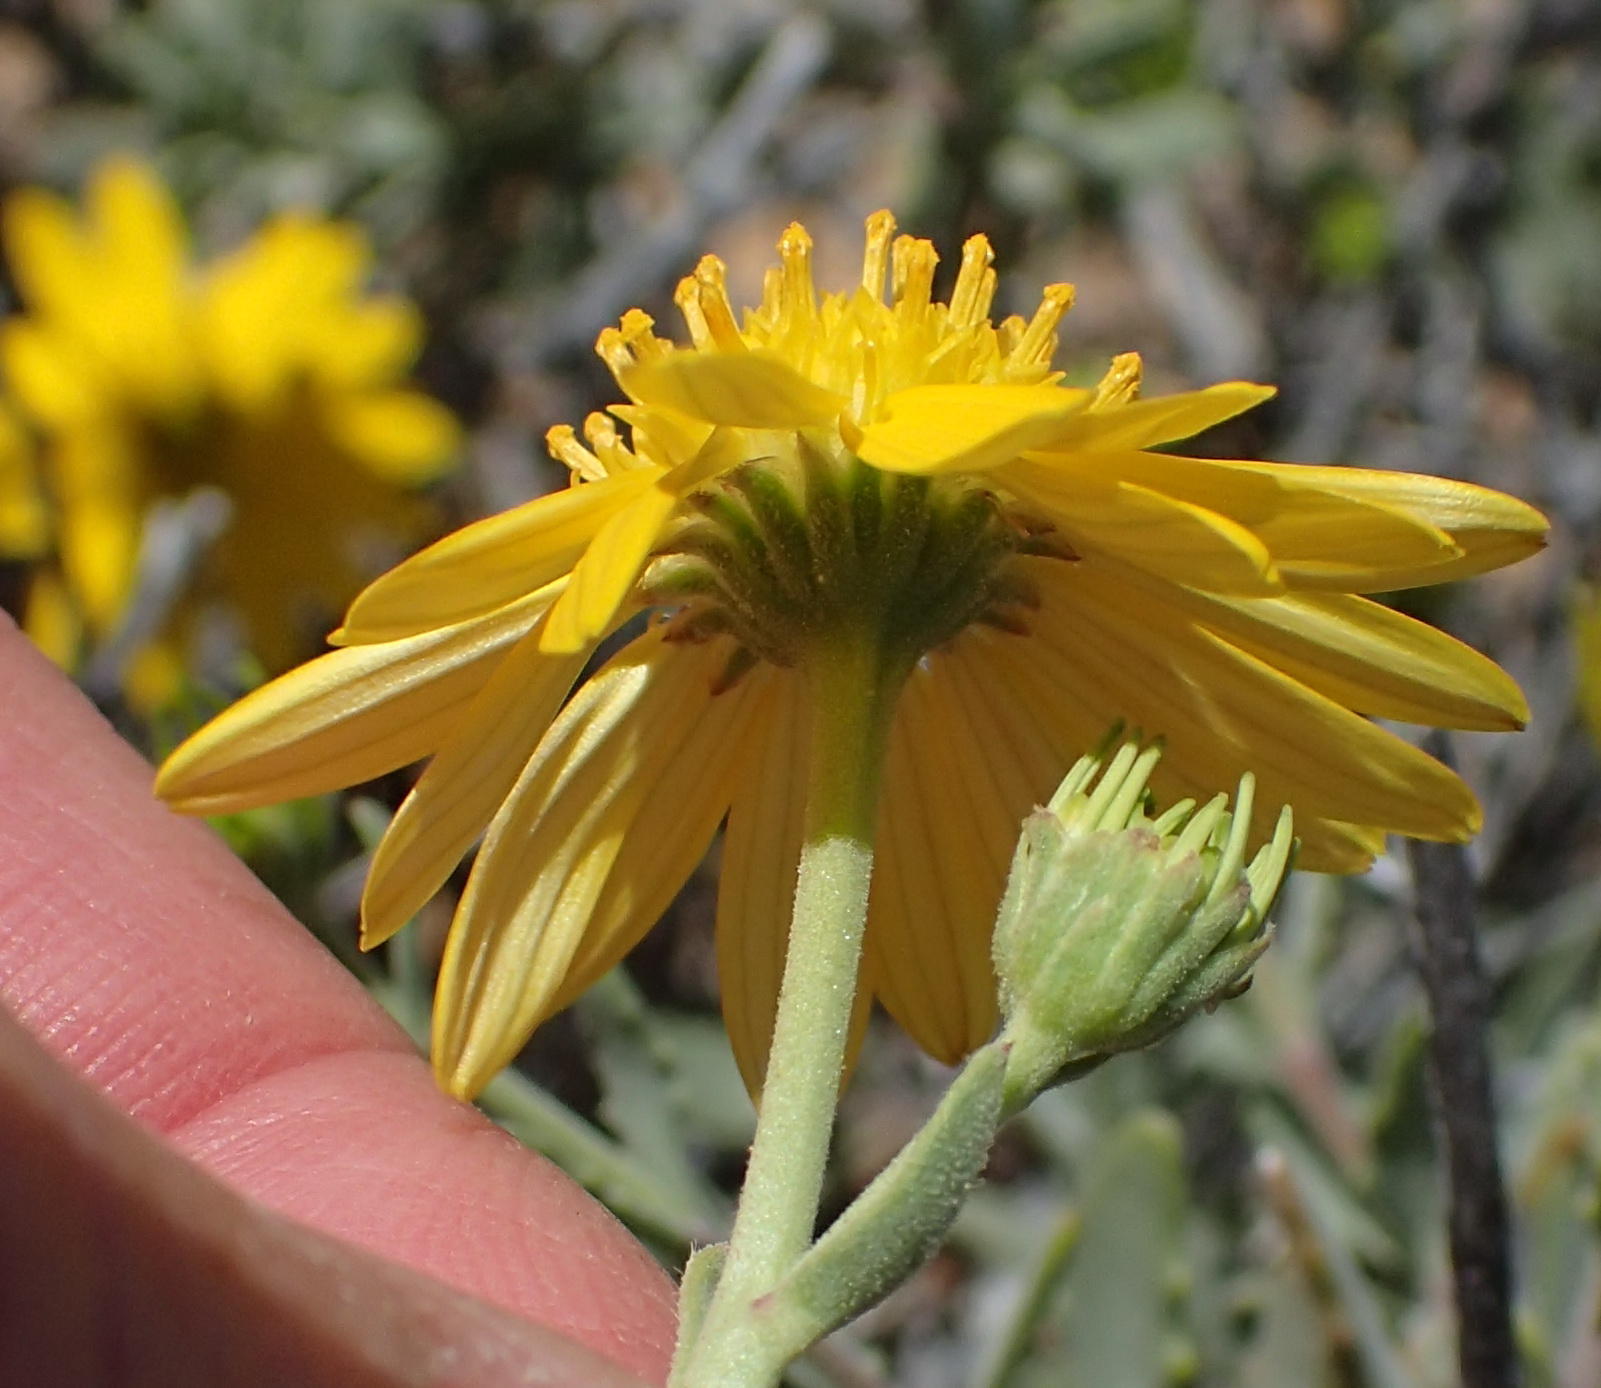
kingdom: Plantae
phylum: Tracheophyta
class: Magnoliopsida
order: Asterales
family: Asteraceae
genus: Osteospermum
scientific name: Osteospermum sinuatum
